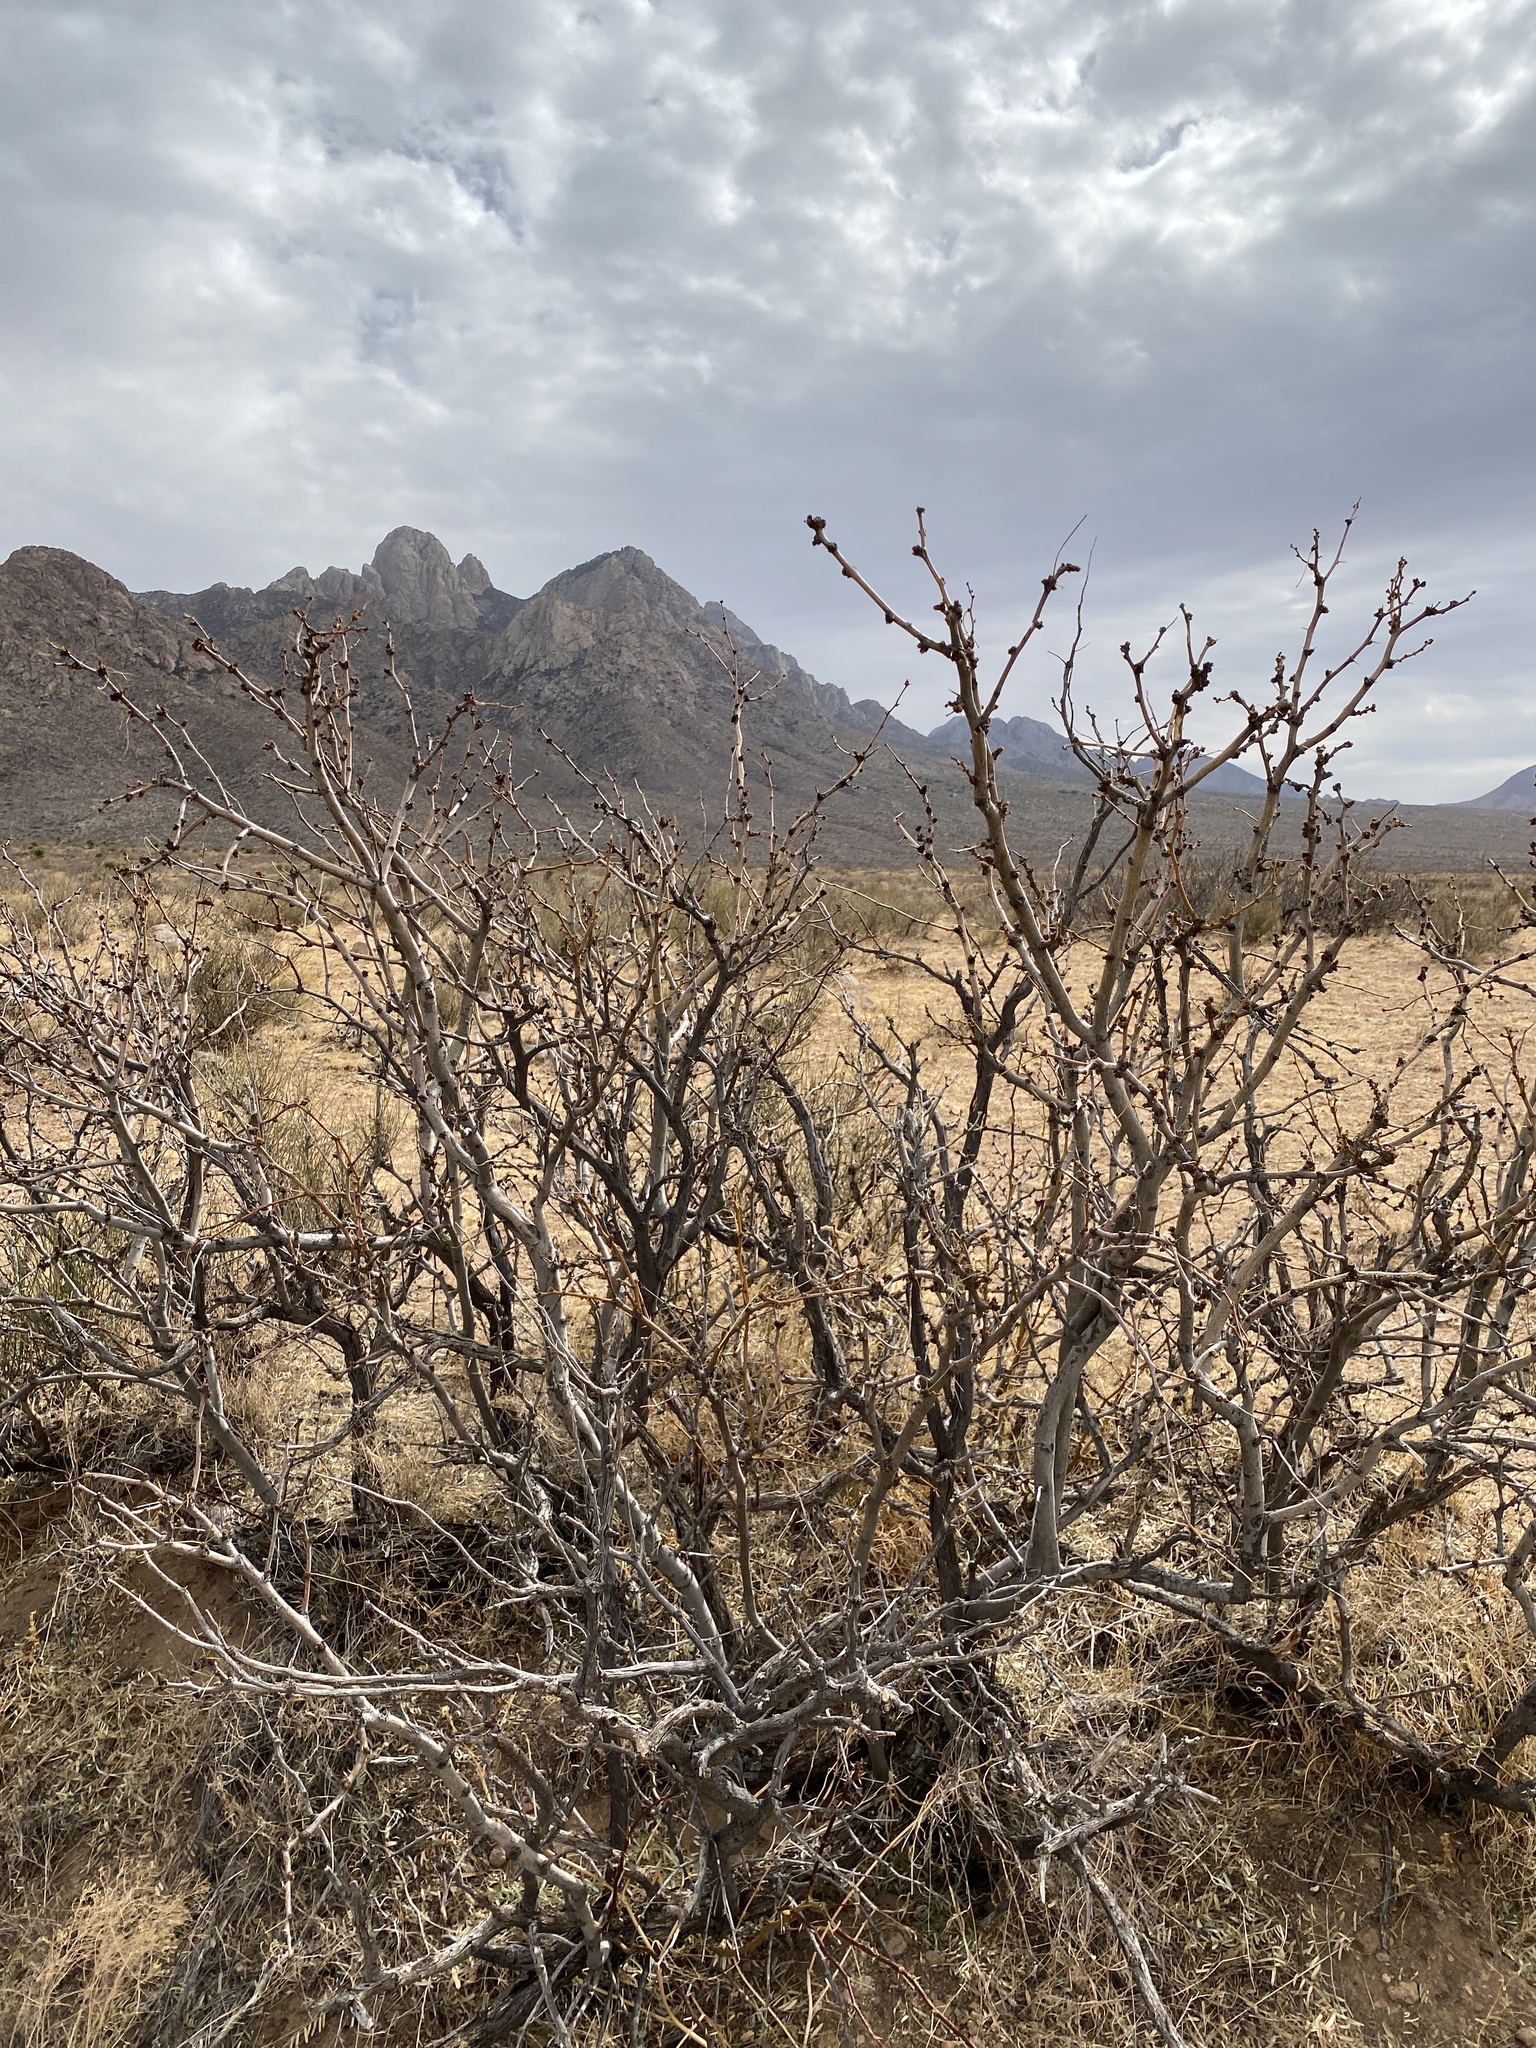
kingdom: Plantae
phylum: Tracheophyta
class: Magnoliopsida
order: Fabales
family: Fabaceae
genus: Prosopis
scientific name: Prosopis glandulosa
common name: Honey mesquite
